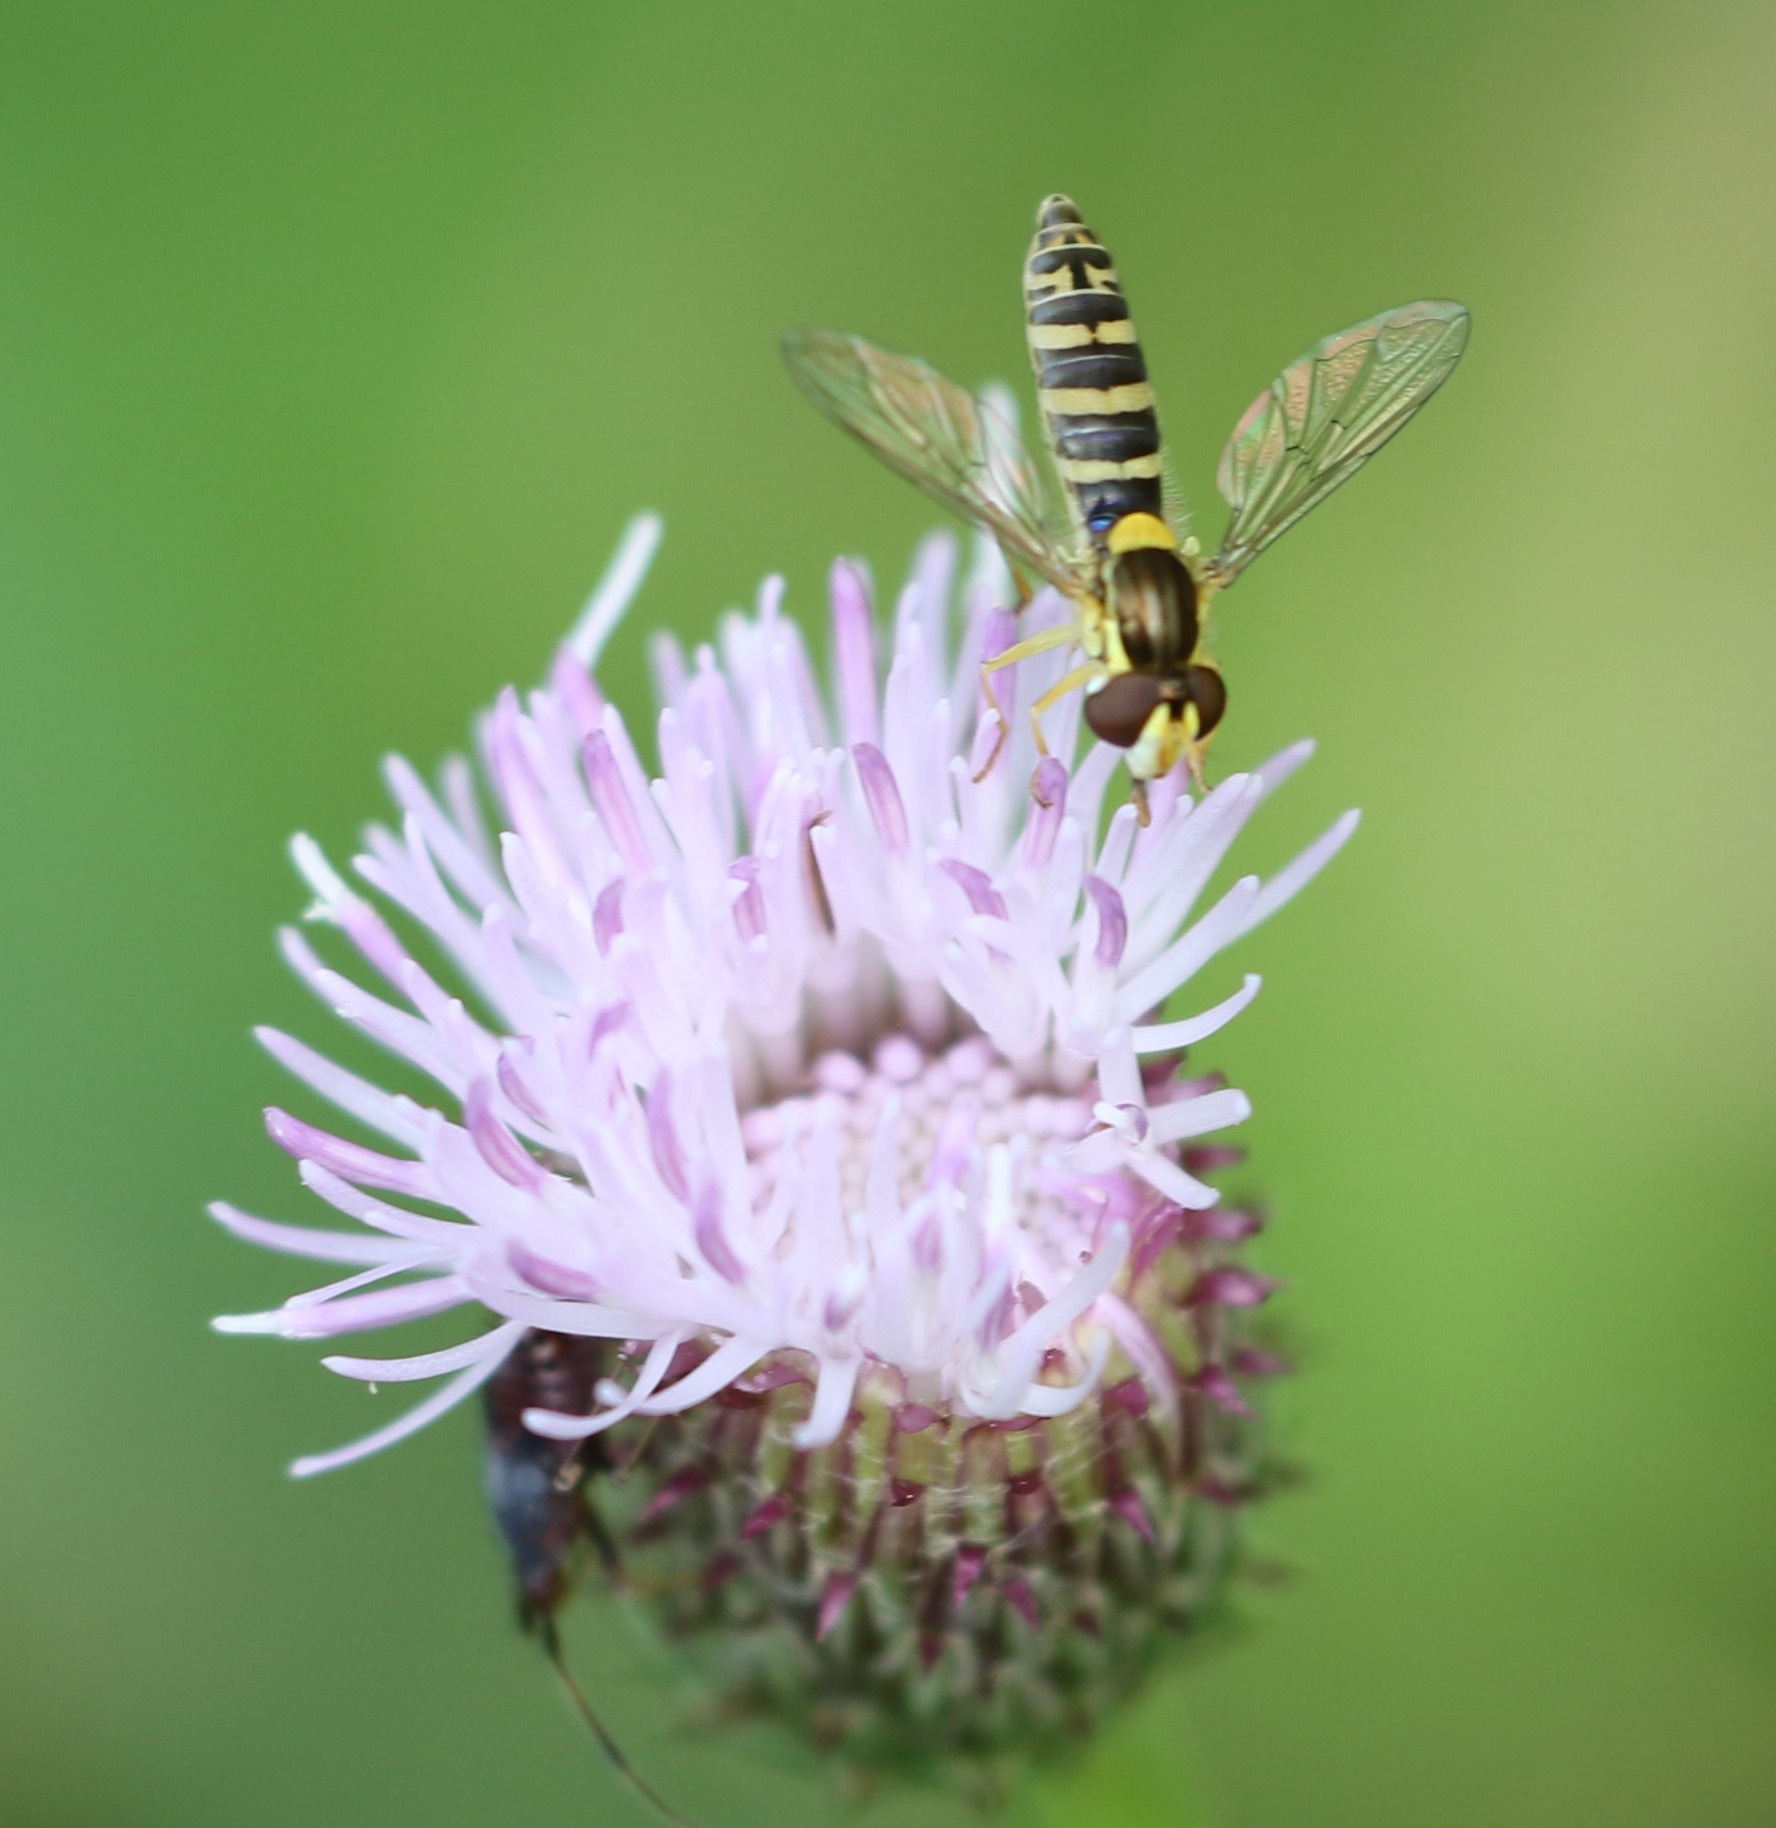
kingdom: Animalia
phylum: Arthropoda
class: Insecta
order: Diptera
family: Syrphidae
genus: Sphaerophoria
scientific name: Sphaerophoria
